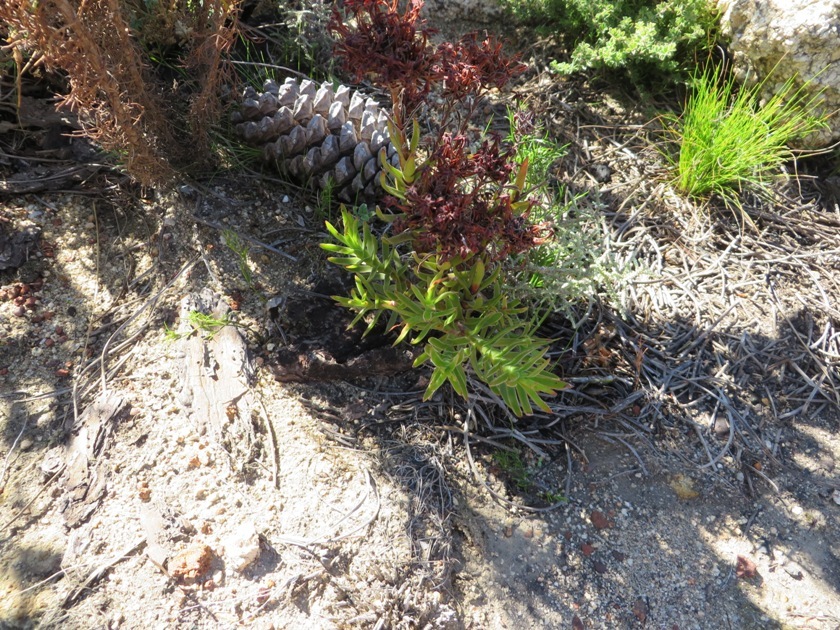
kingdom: Plantae
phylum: Tracheophyta
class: Magnoliopsida
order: Saxifragales
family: Crassulaceae
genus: Crassula
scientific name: Crassula fascicularis
